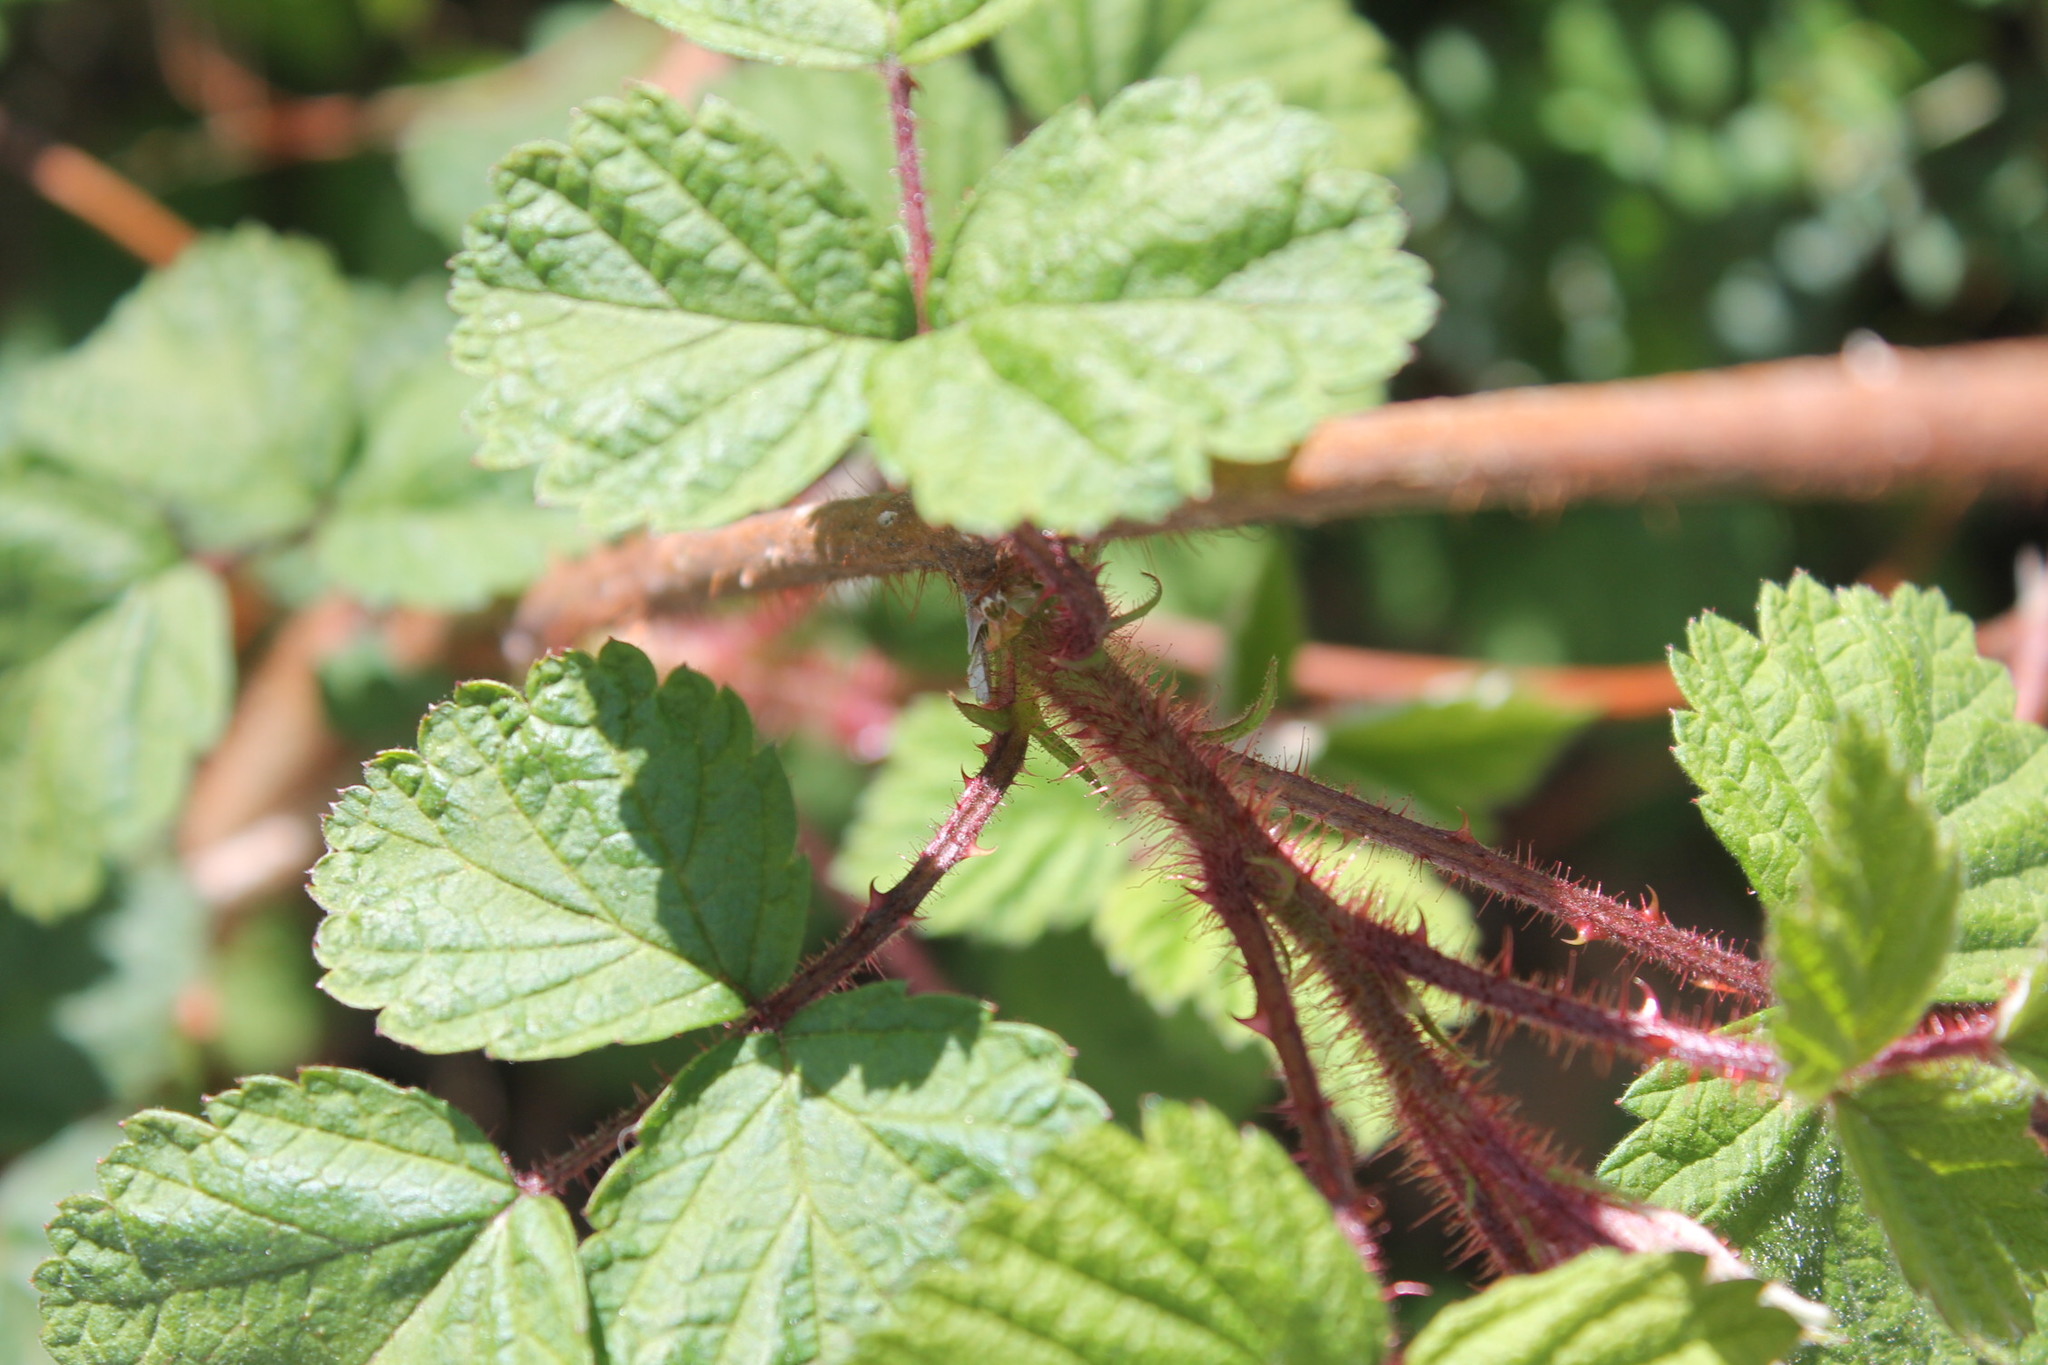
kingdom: Plantae
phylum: Tracheophyta
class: Magnoliopsida
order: Rosales
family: Rosaceae
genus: Rubus
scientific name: Rubus phoenicolasius
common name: Japanese wineberry
